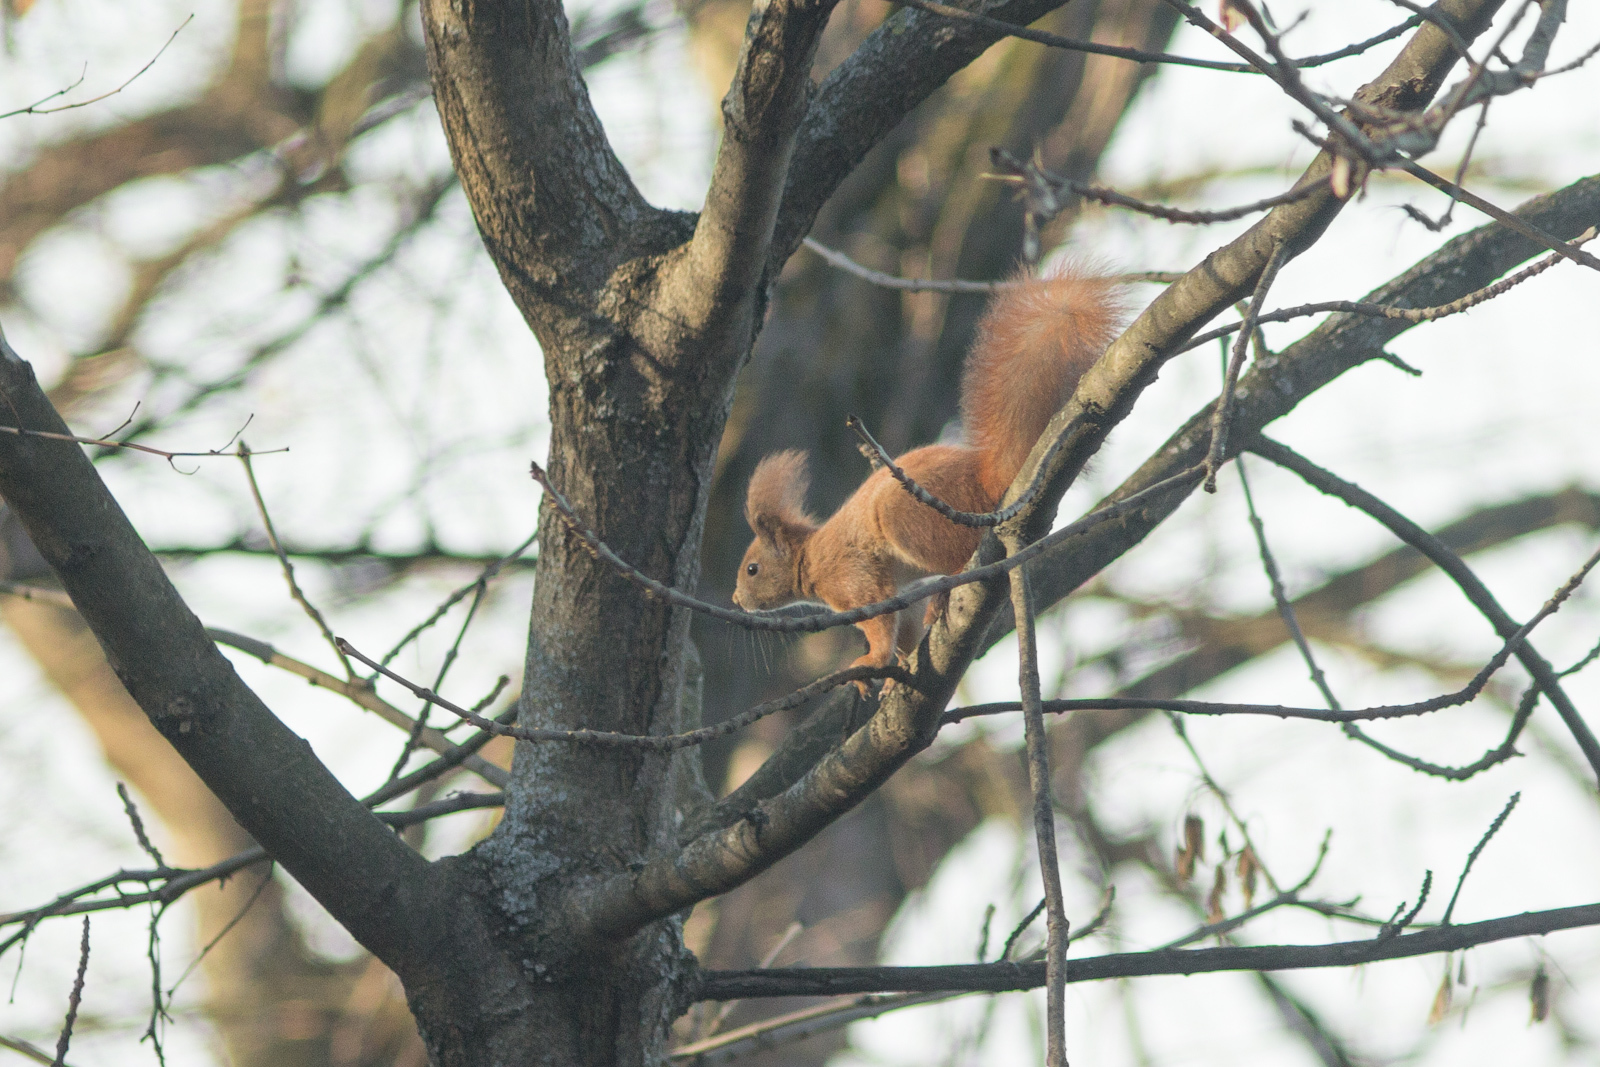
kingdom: Animalia
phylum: Chordata
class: Mammalia
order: Rodentia
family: Sciuridae
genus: Sciurus
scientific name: Sciurus vulgaris
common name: Eurasian red squirrel
